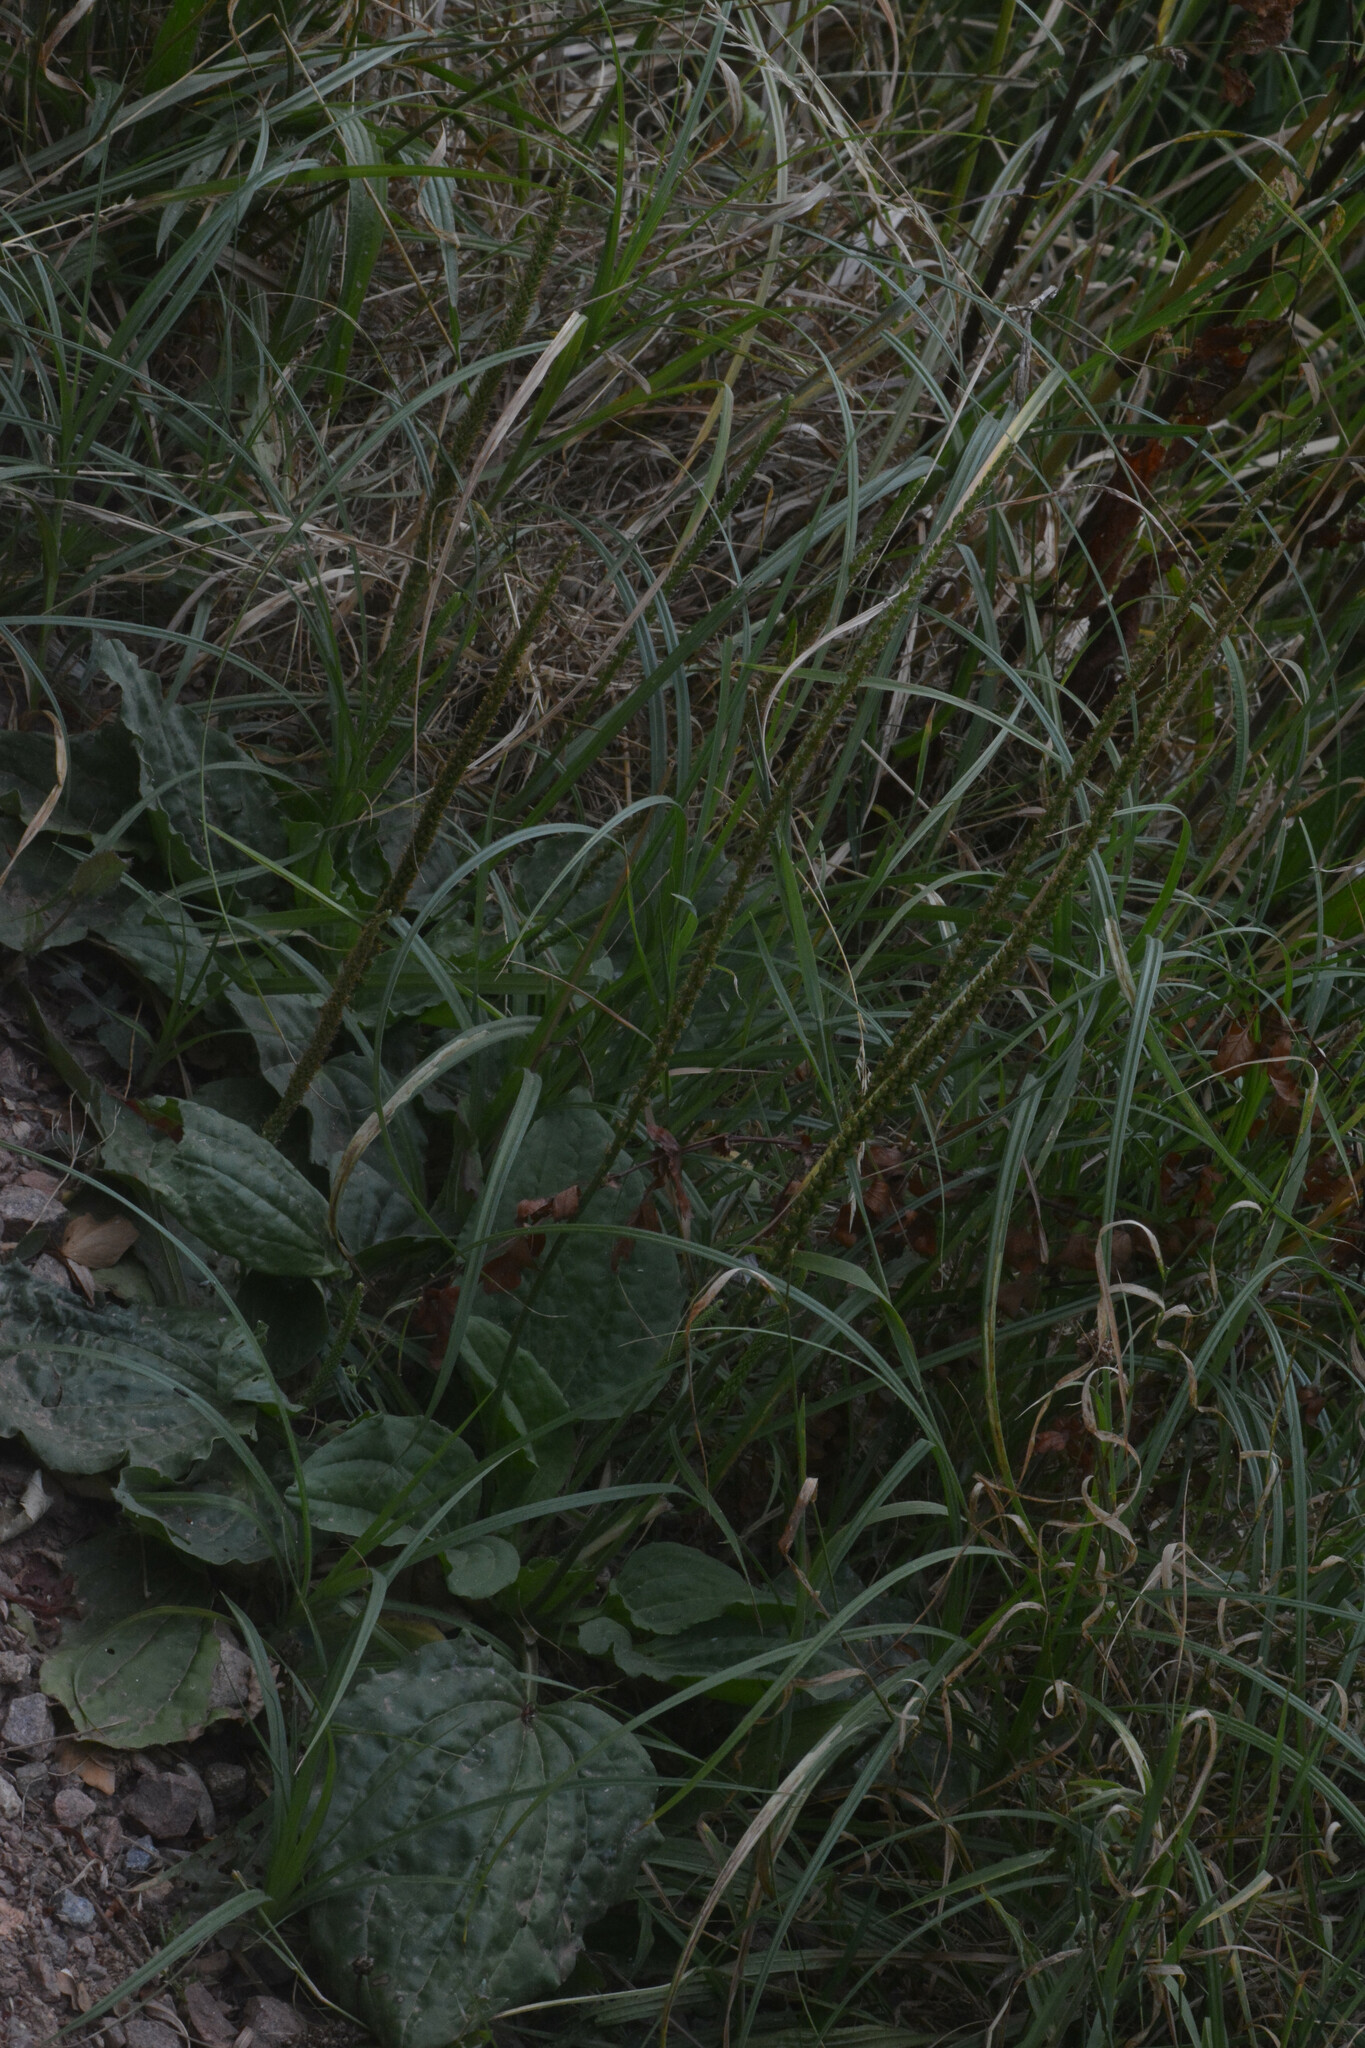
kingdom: Plantae
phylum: Tracheophyta
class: Magnoliopsida
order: Lamiales
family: Plantaginaceae
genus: Plantago
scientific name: Plantago major
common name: Common plantain
